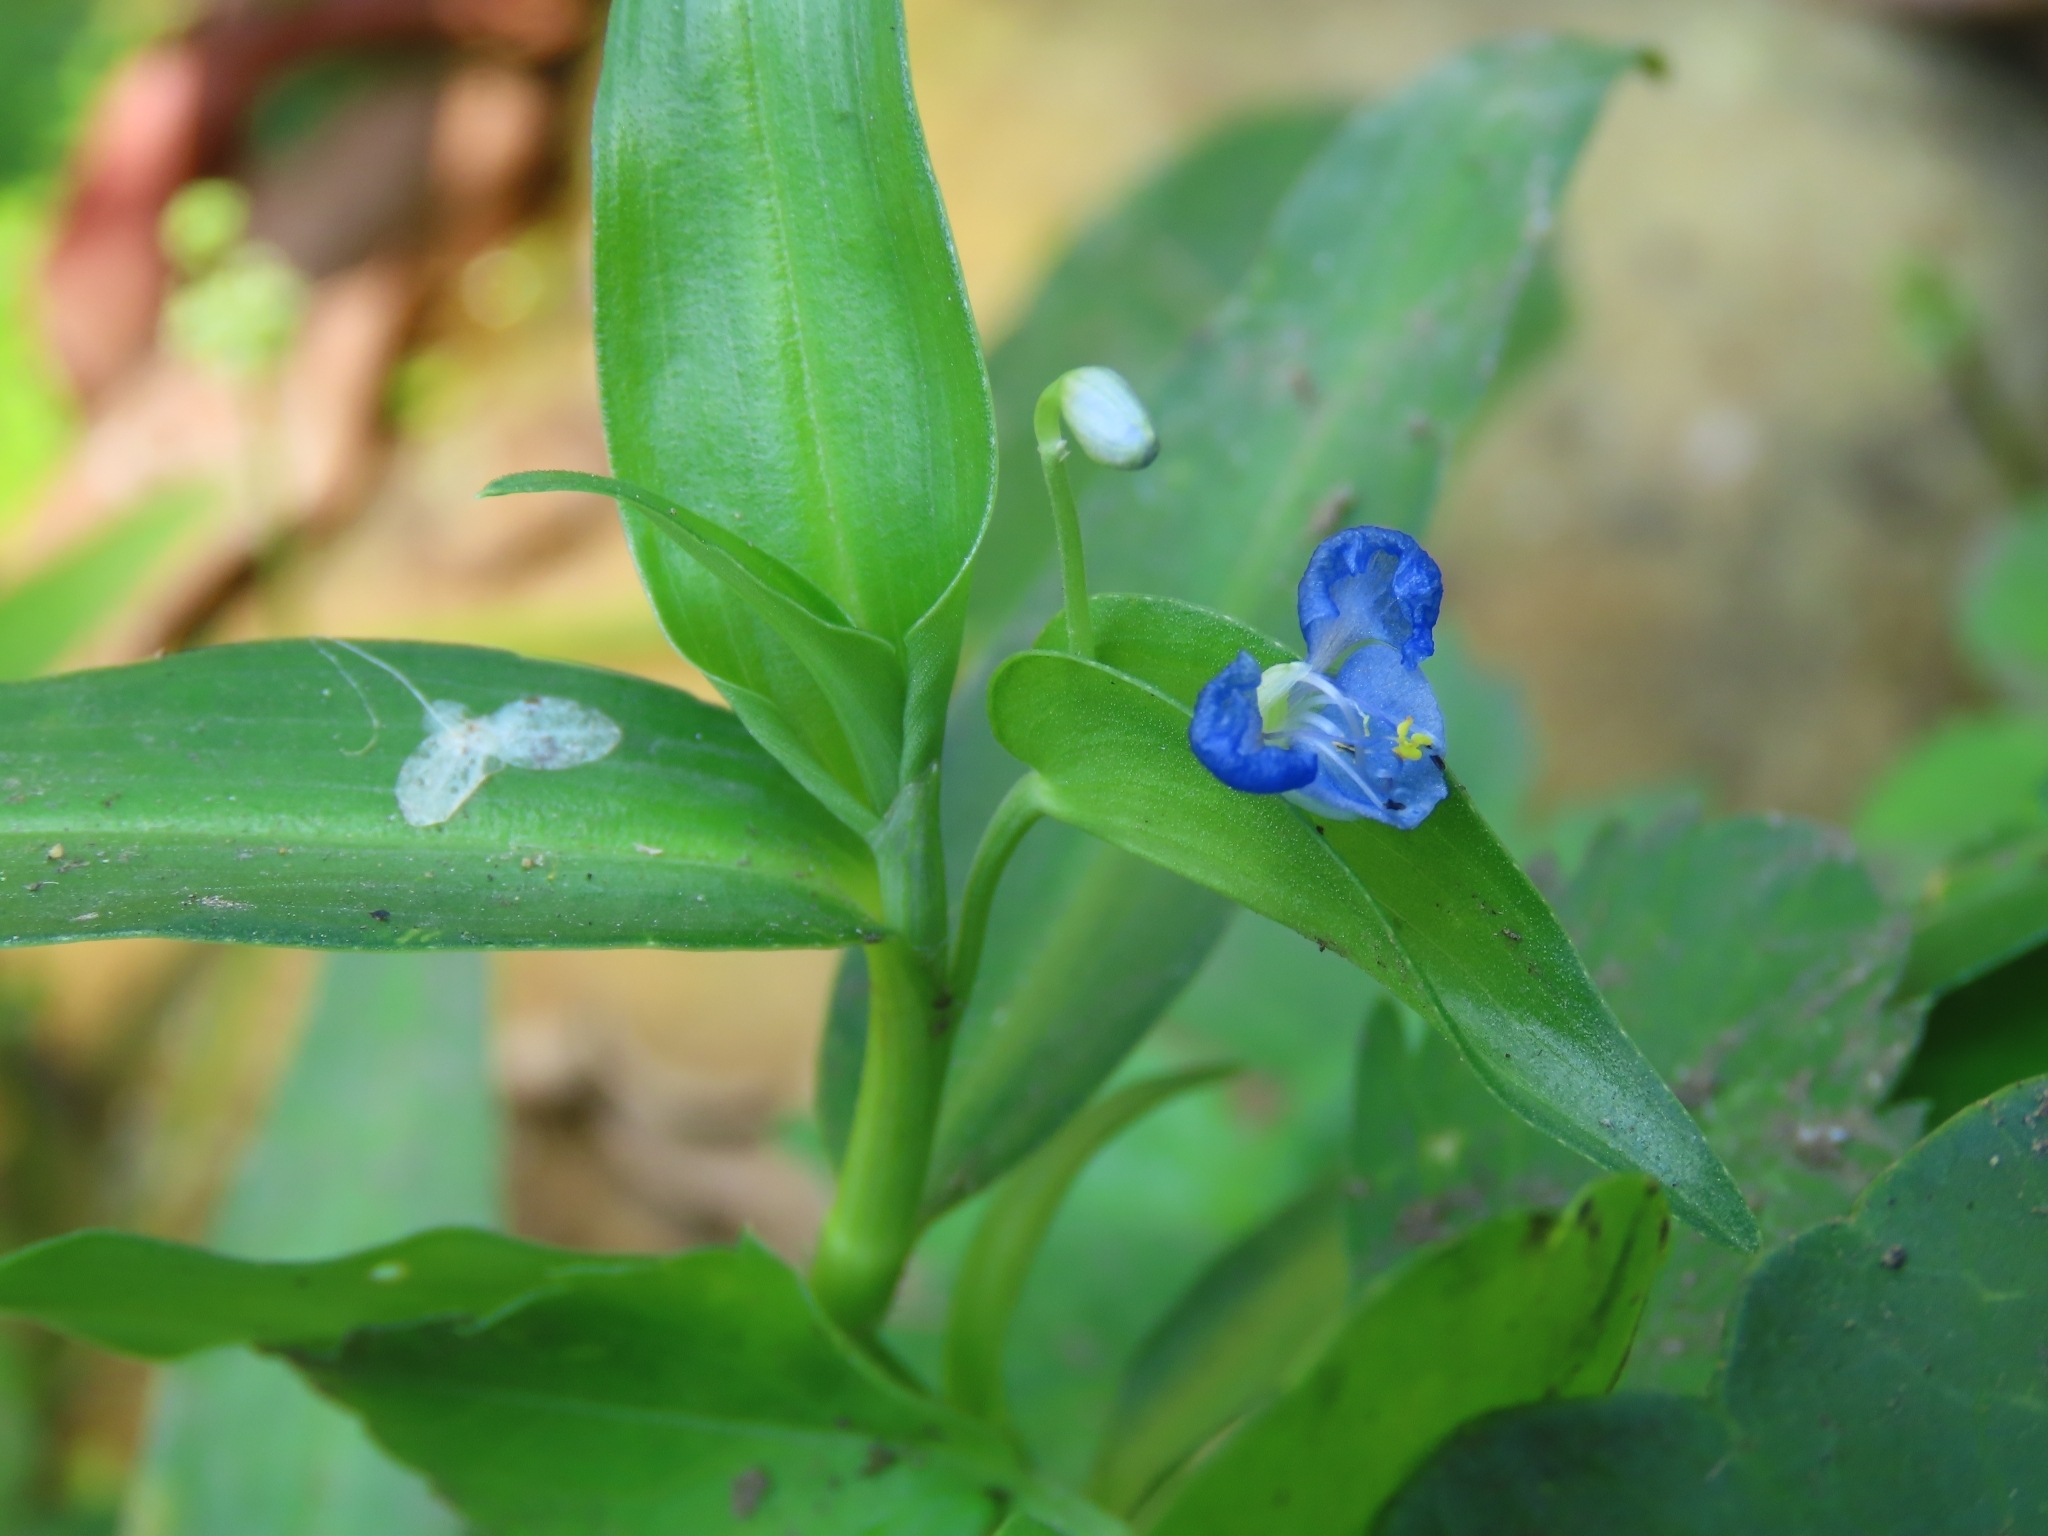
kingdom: Plantae
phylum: Tracheophyta
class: Liliopsida
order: Commelinales
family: Commelinaceae
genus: Commelina
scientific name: Commelina diffusa
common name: Climbing dayflower
